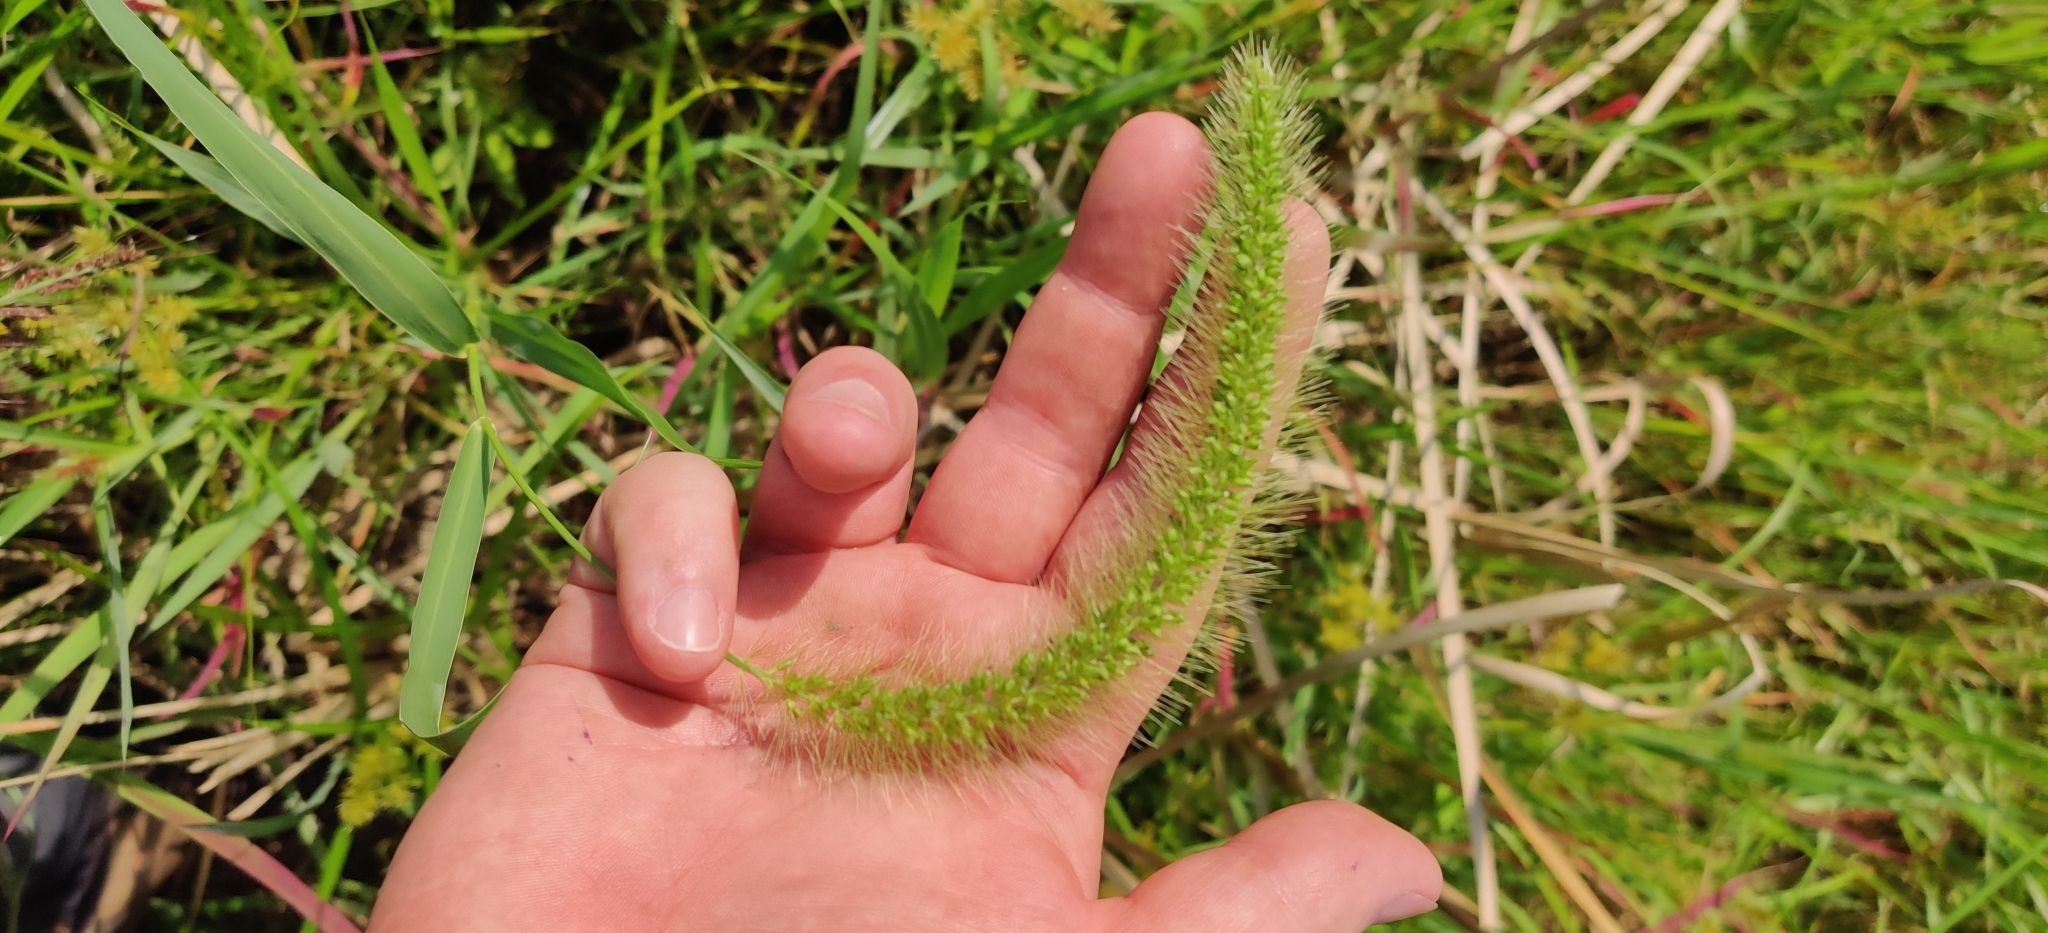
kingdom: Plantae
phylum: Tracheophyta
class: Liliopsida
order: Poales
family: Poaceae
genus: Setaria
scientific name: Setaria faberi
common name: Nodding bristle-grass
